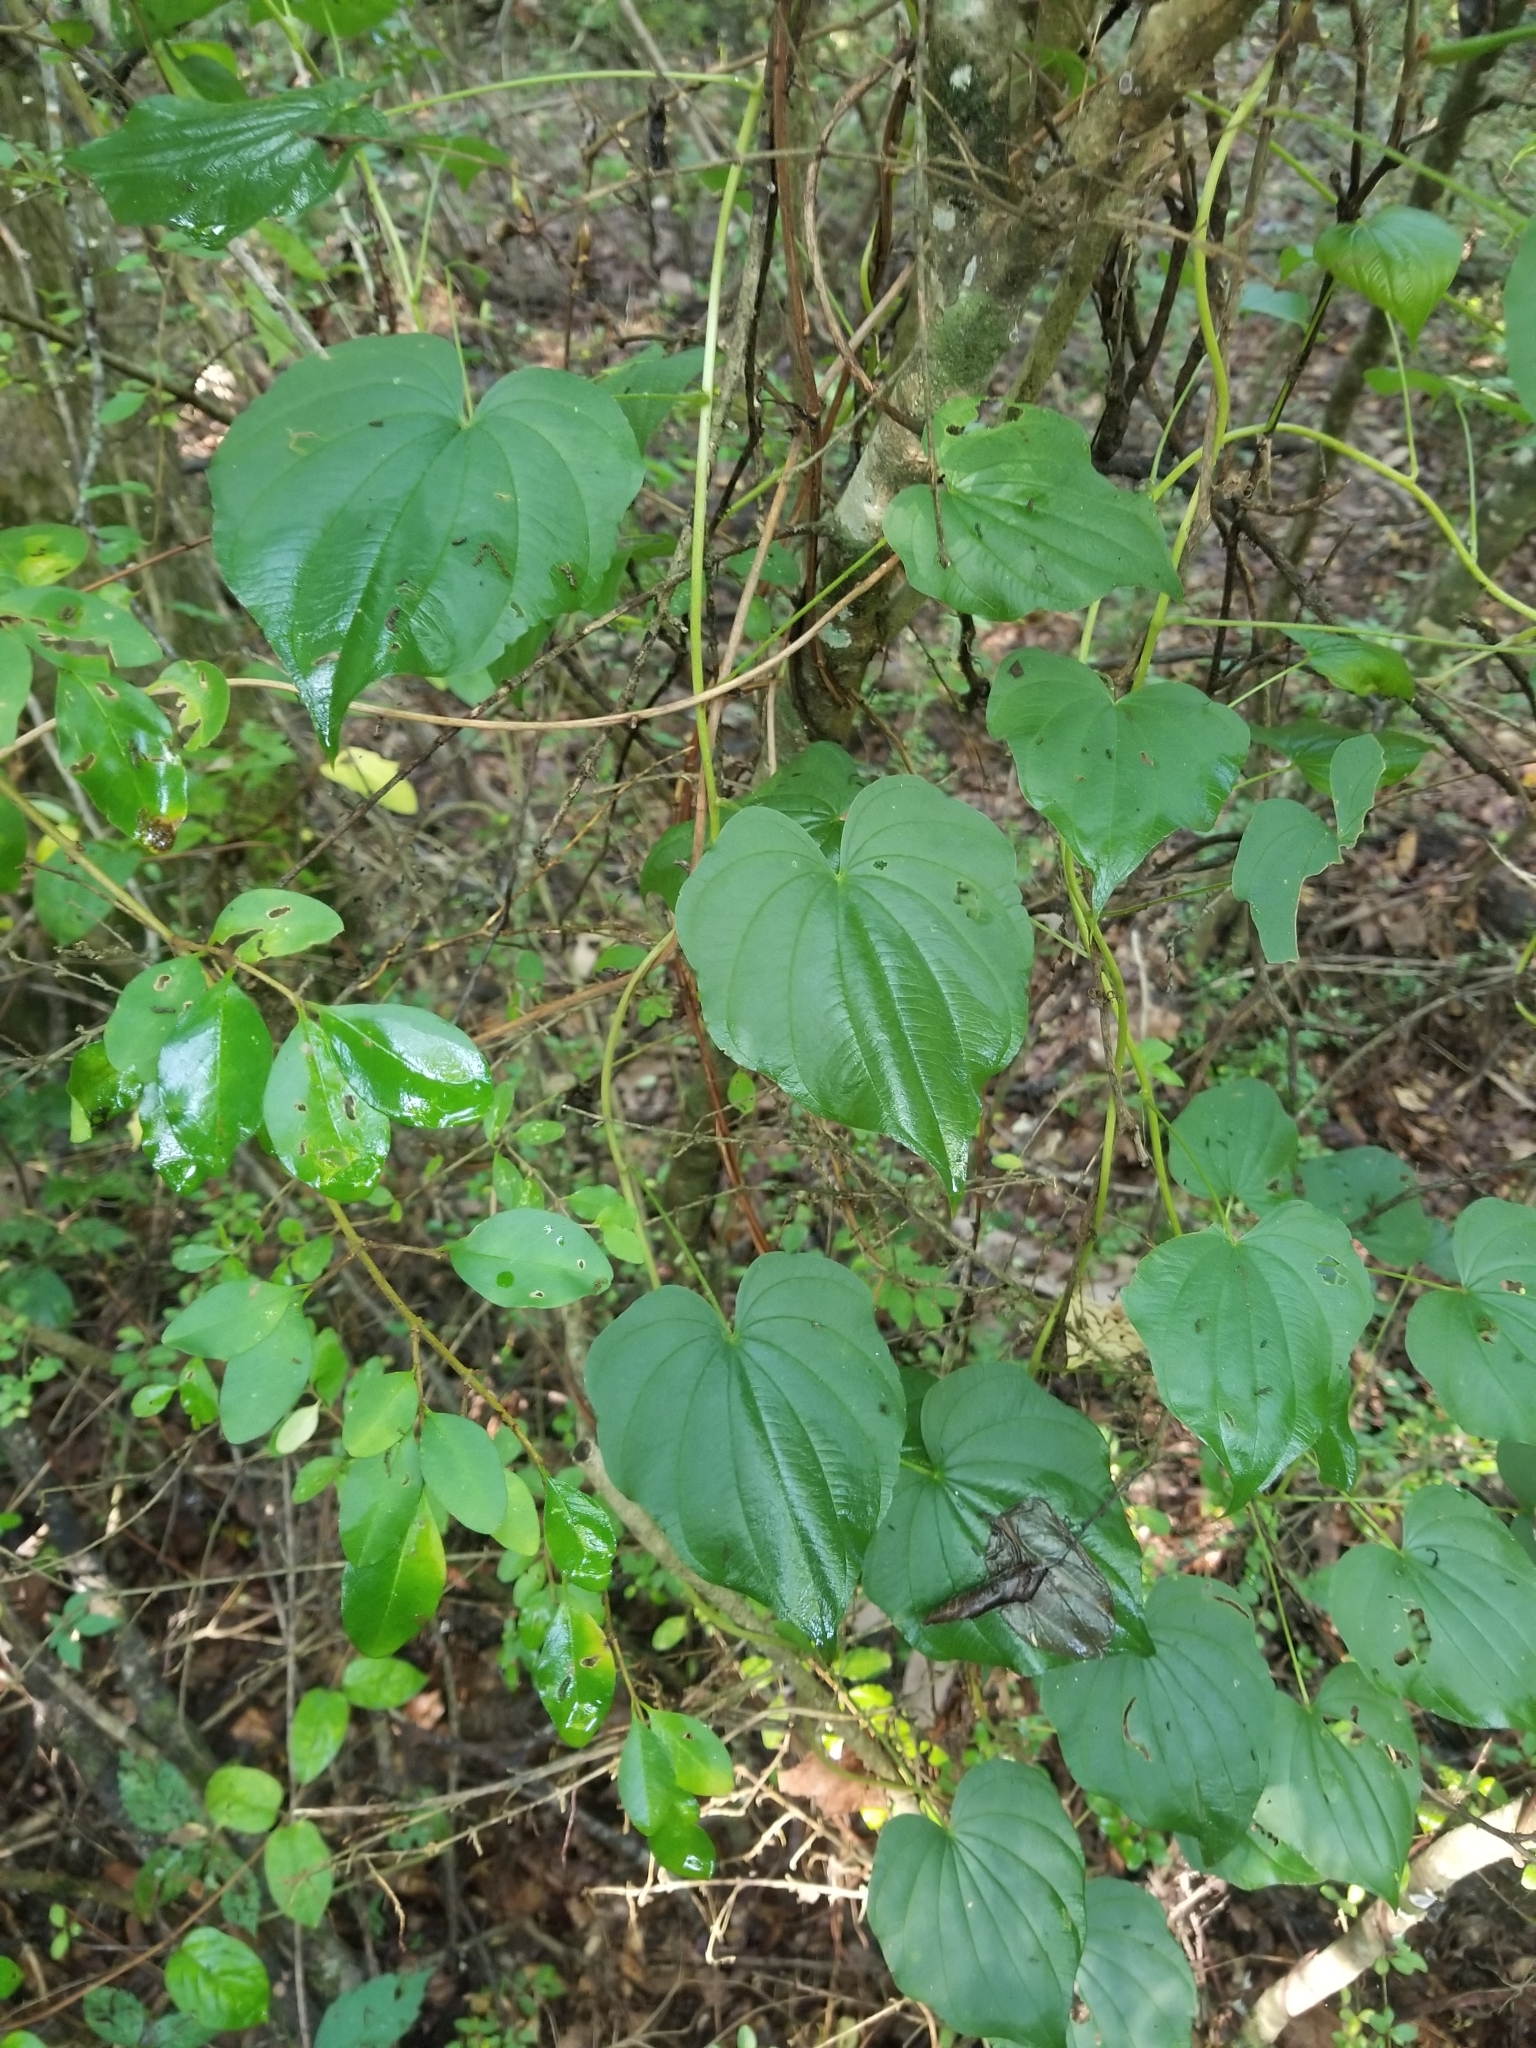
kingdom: Plantae
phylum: Tracheophyta
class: Liliopsida
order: Dioscoreales
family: Dioscoreaceae
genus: Dioscorea
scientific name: Dioscorea villosa
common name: Wild yam
